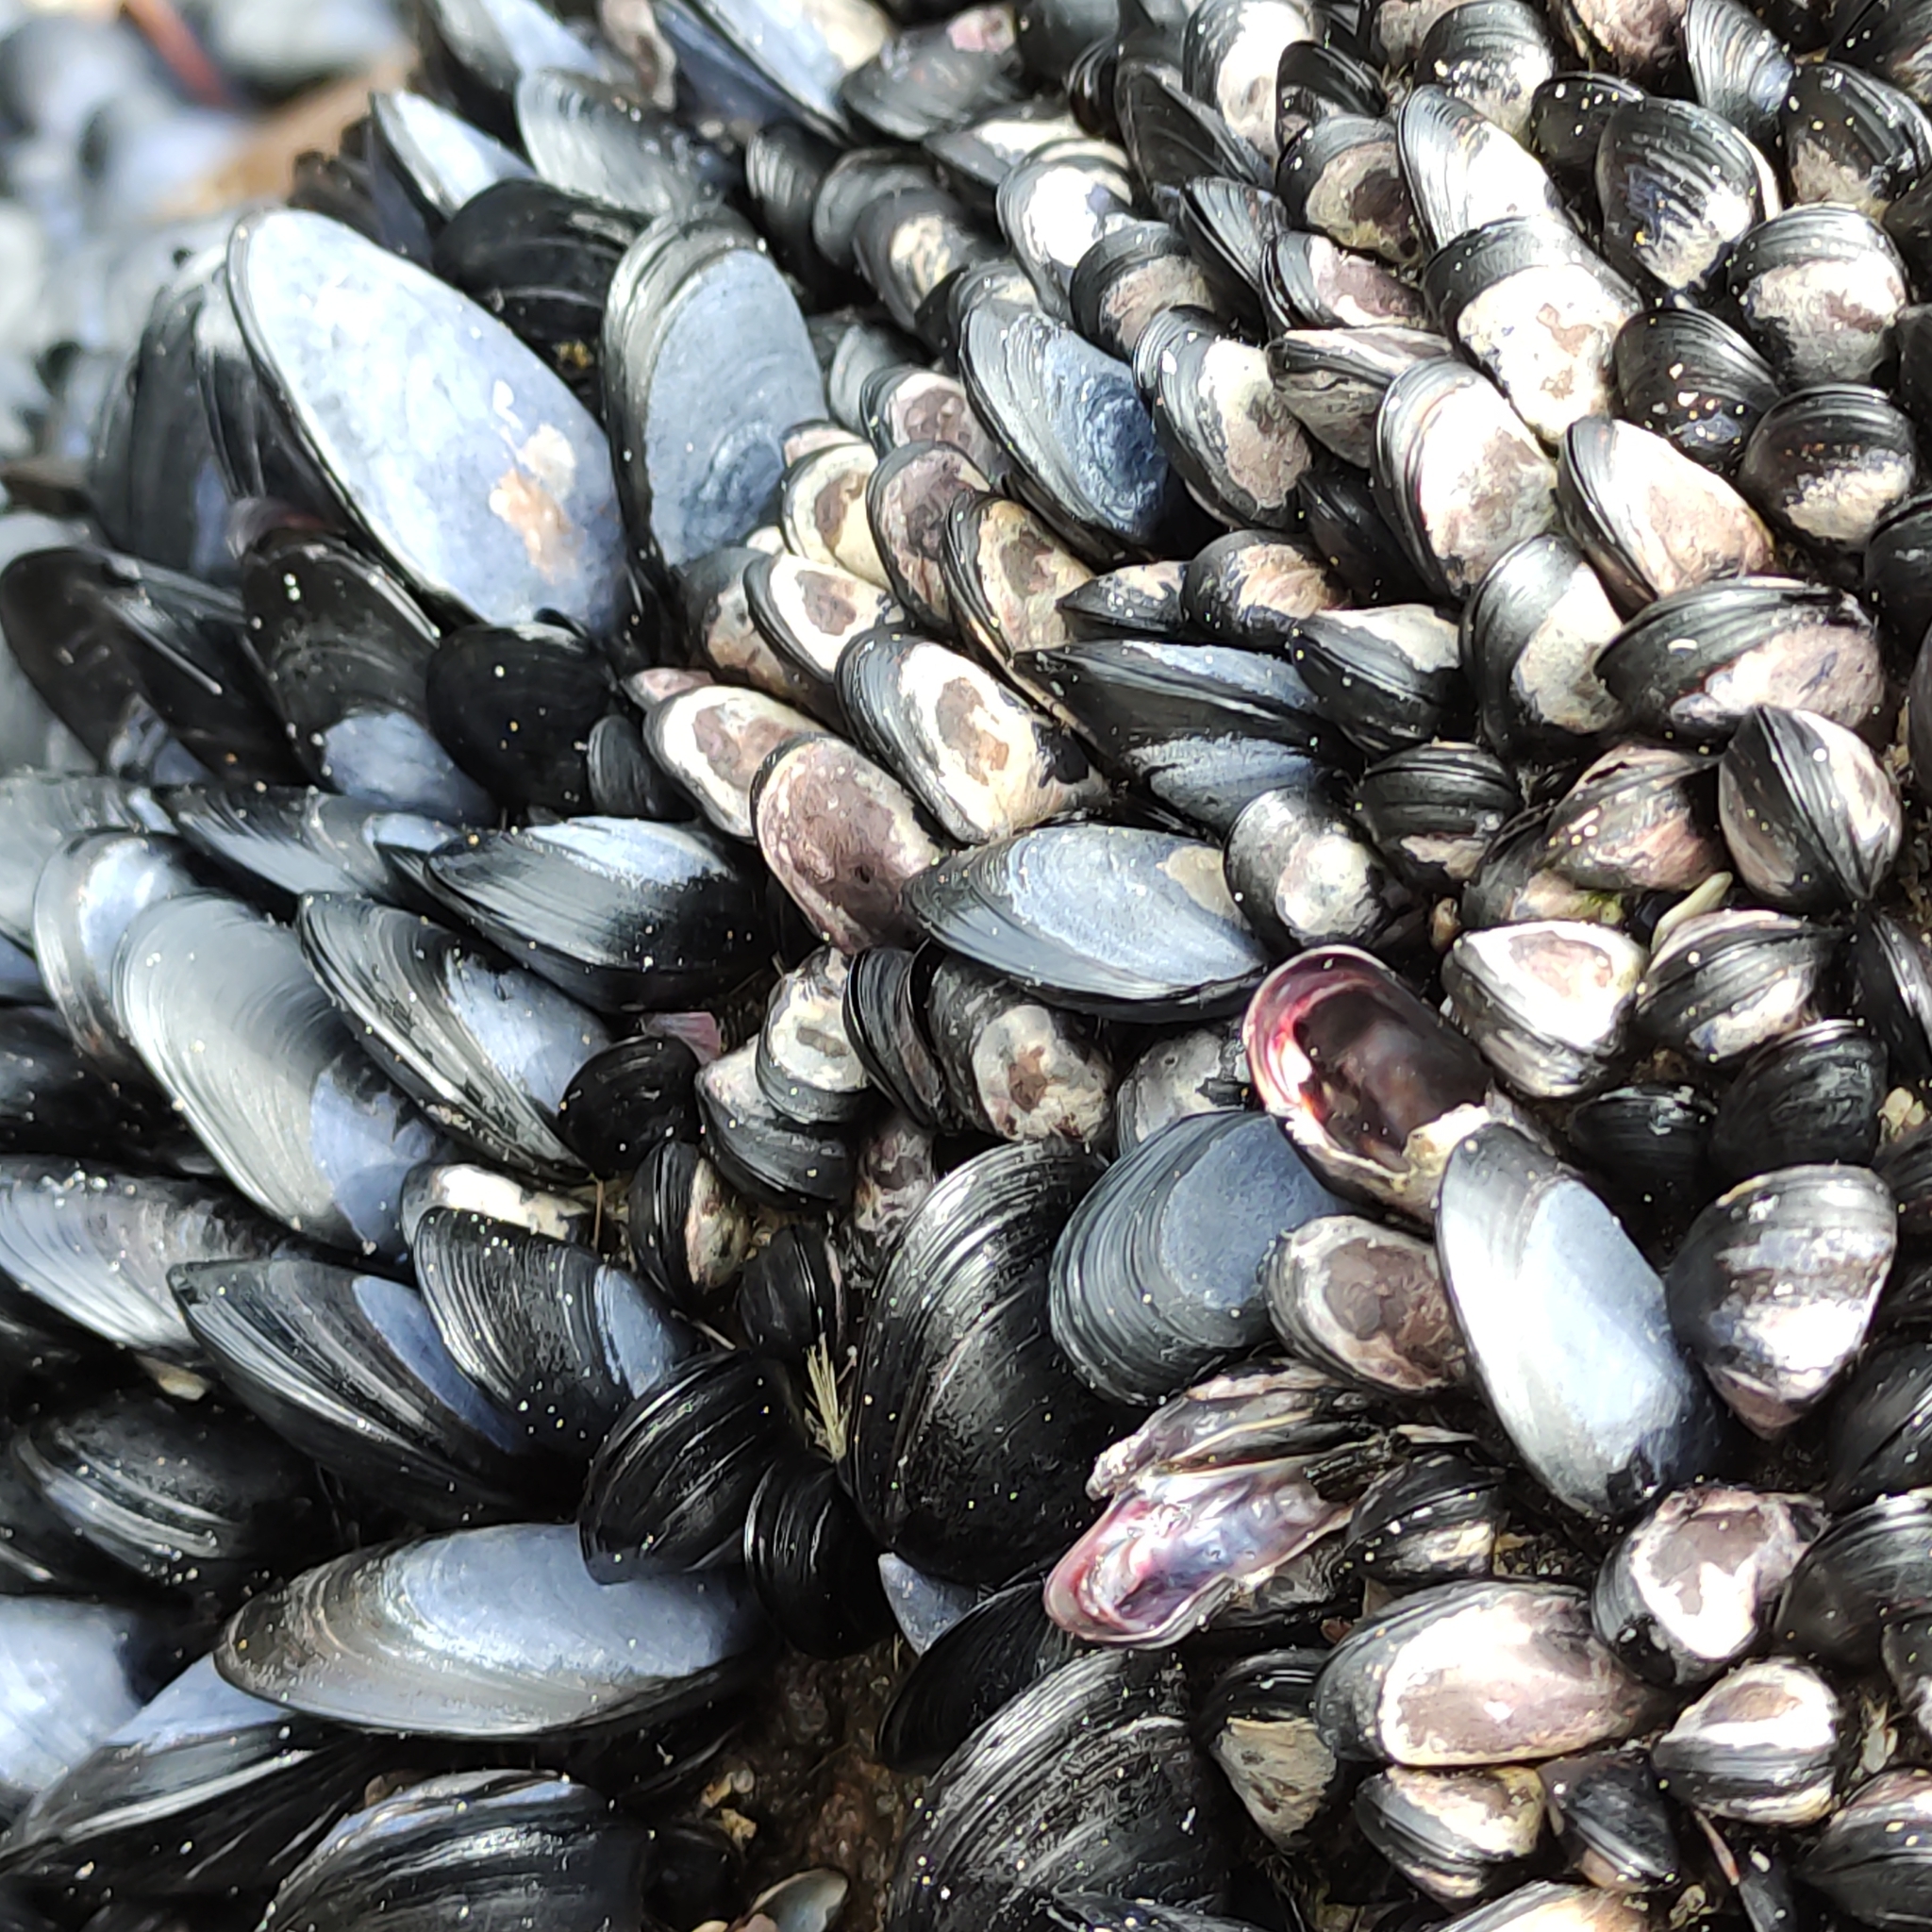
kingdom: Animalia
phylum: Mollusca
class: Bivalvia
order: Mytilida
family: Mytilidae
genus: Xenostrobus
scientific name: Xenostrobus neozelanicus
